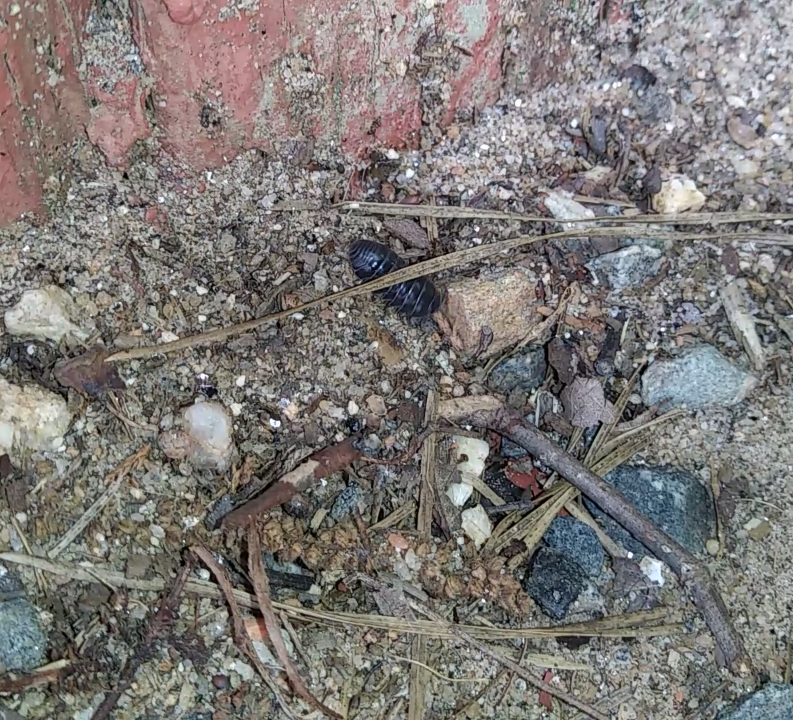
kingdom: Animalia
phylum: Arthropoda
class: Malacostraca
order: Isopoda
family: Armadillidiidae
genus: Armadillidium
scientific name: Armadillidium vulgare
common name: Common pill woodlouse
